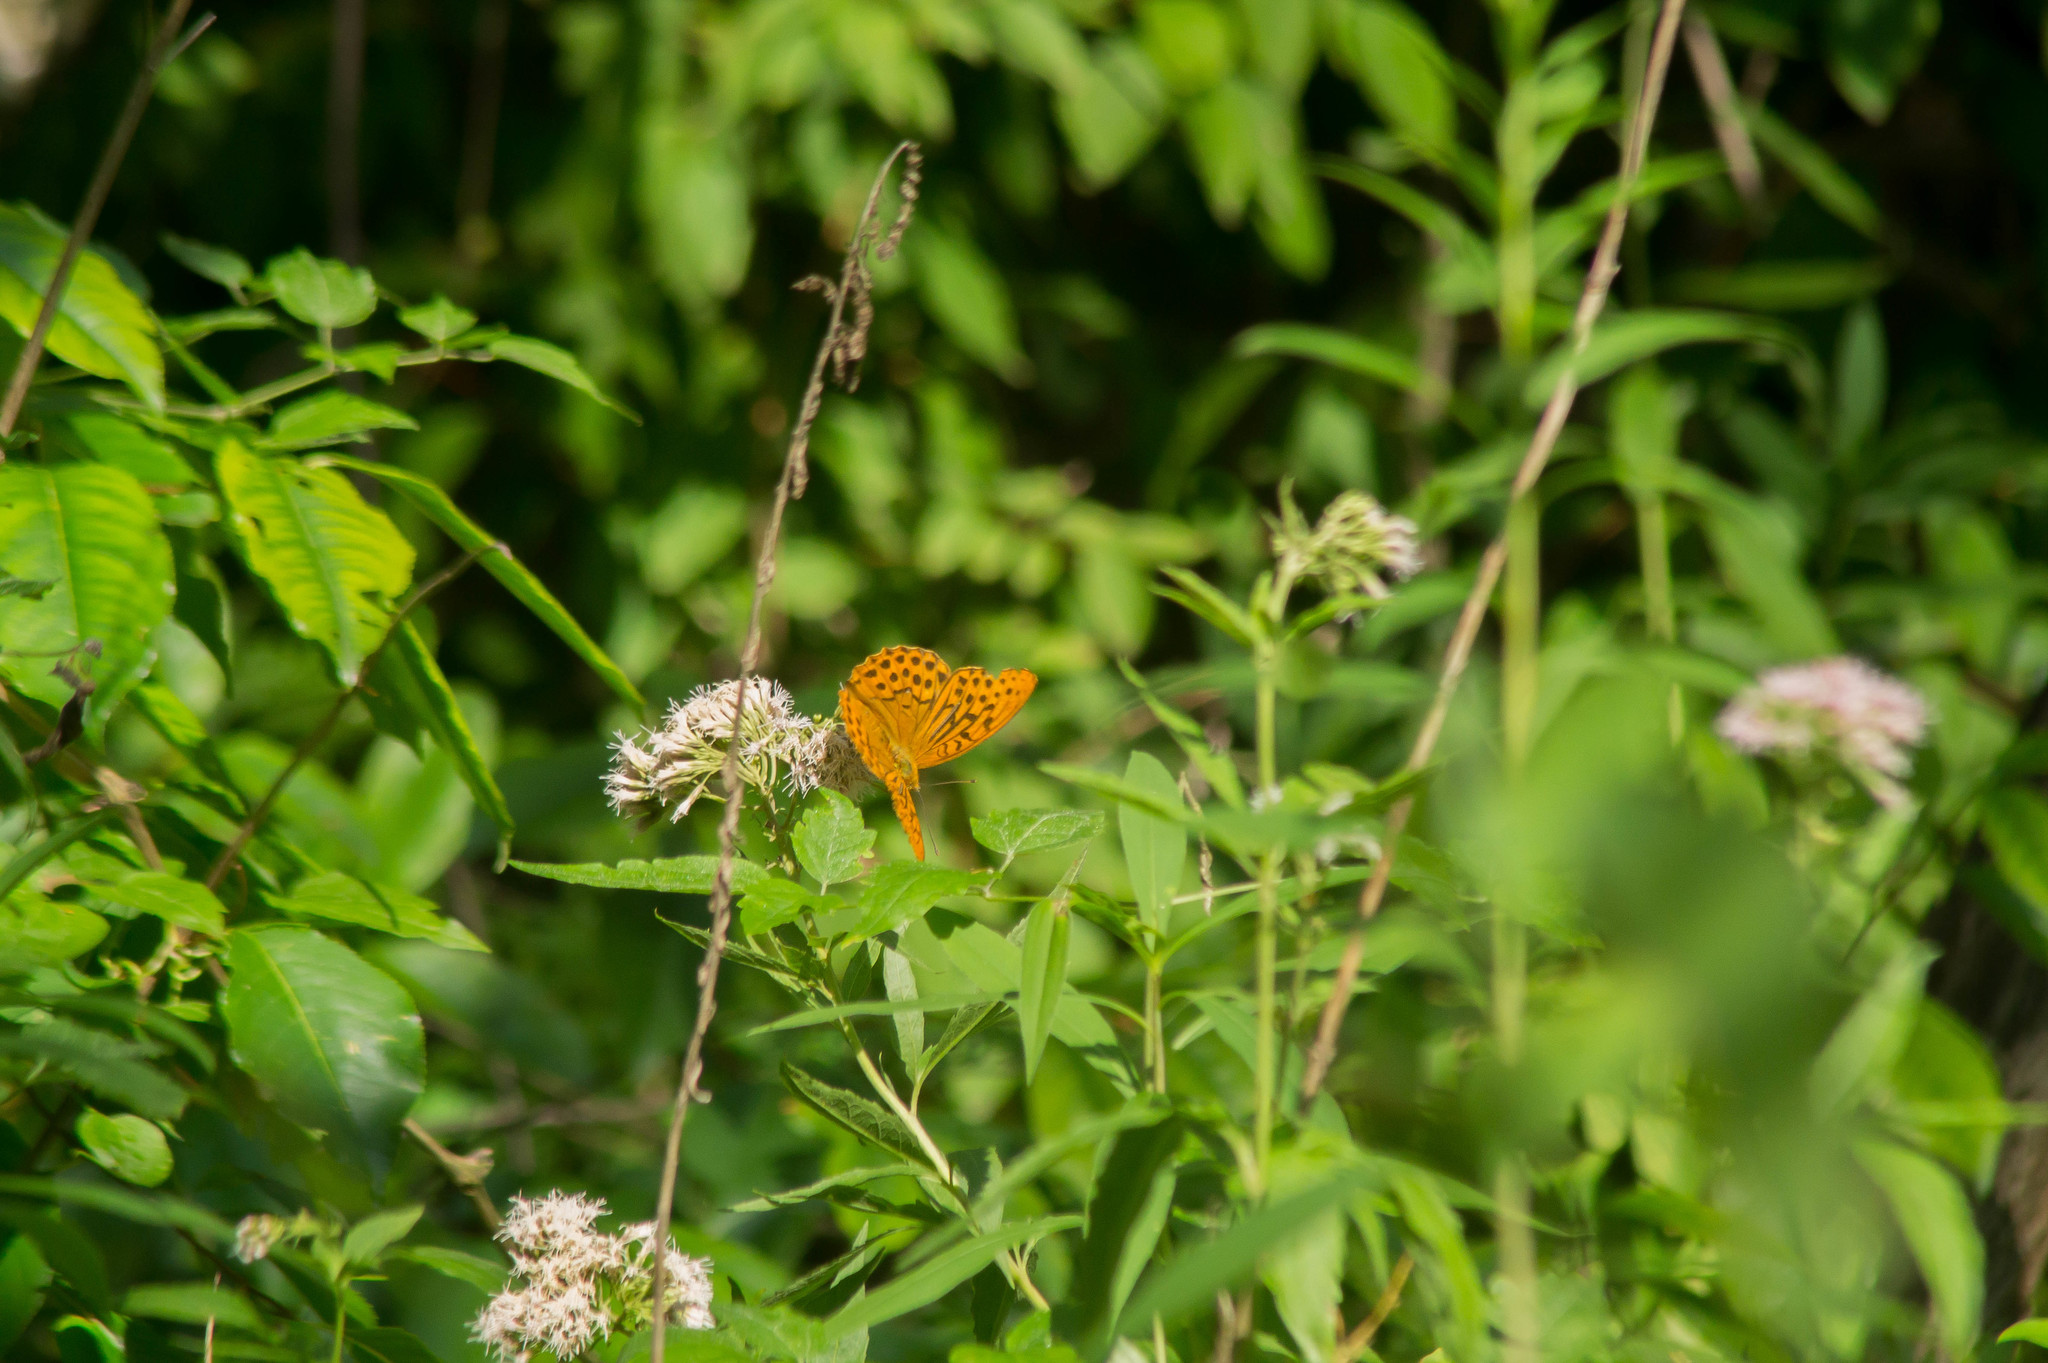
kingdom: Animalia
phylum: Arthropoda
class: Insecta
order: Lepidoptera
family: Nymphalidae
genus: Argynnis
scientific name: Argynnis paphia
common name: Silver-washed fritillary
